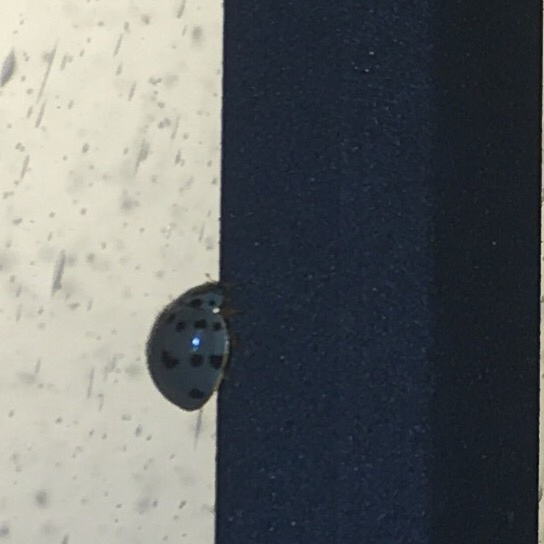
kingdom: Animalia
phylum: Arthropoda
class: Insecta
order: Coleoptera
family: Coccinellidae
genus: Olla
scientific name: Olla v-nigrum
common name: Ashy gray lady beetle
